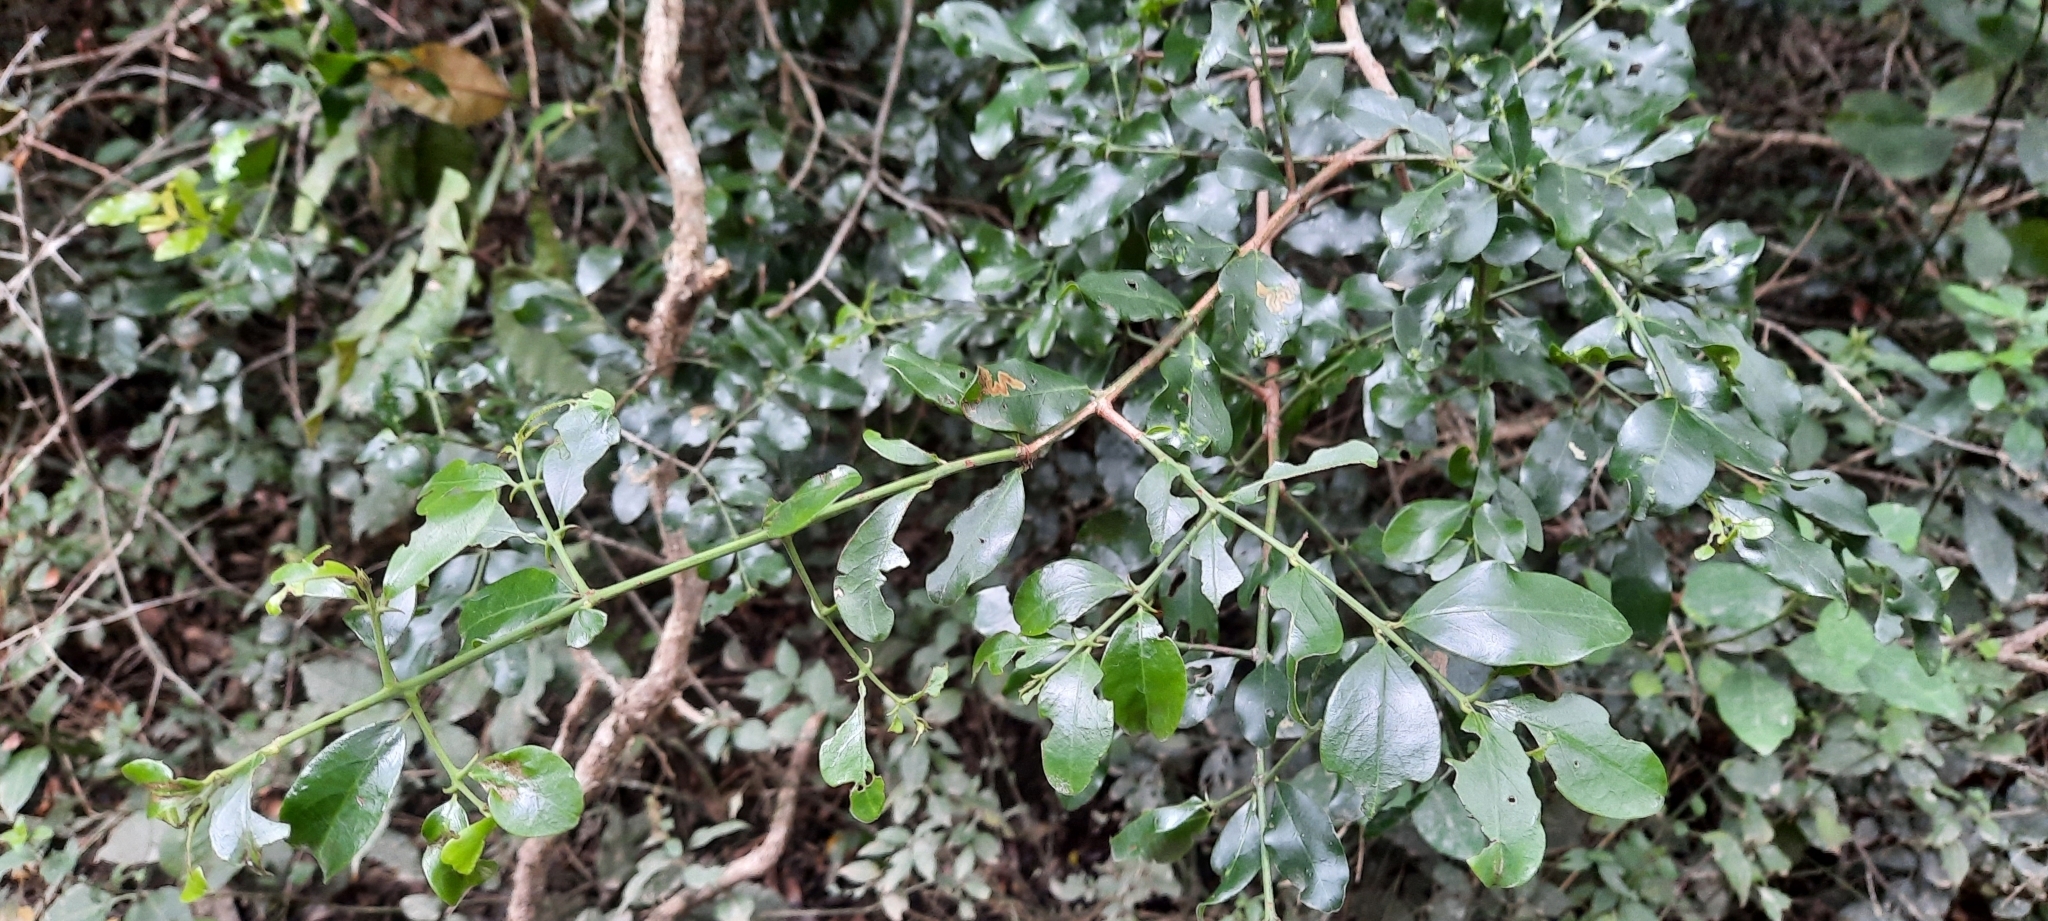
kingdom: Plantae
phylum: Tracheophyta
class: Magnoliopsida
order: Rosales
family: Rhamnaceae
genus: Scutia
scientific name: Scutia myrtina
